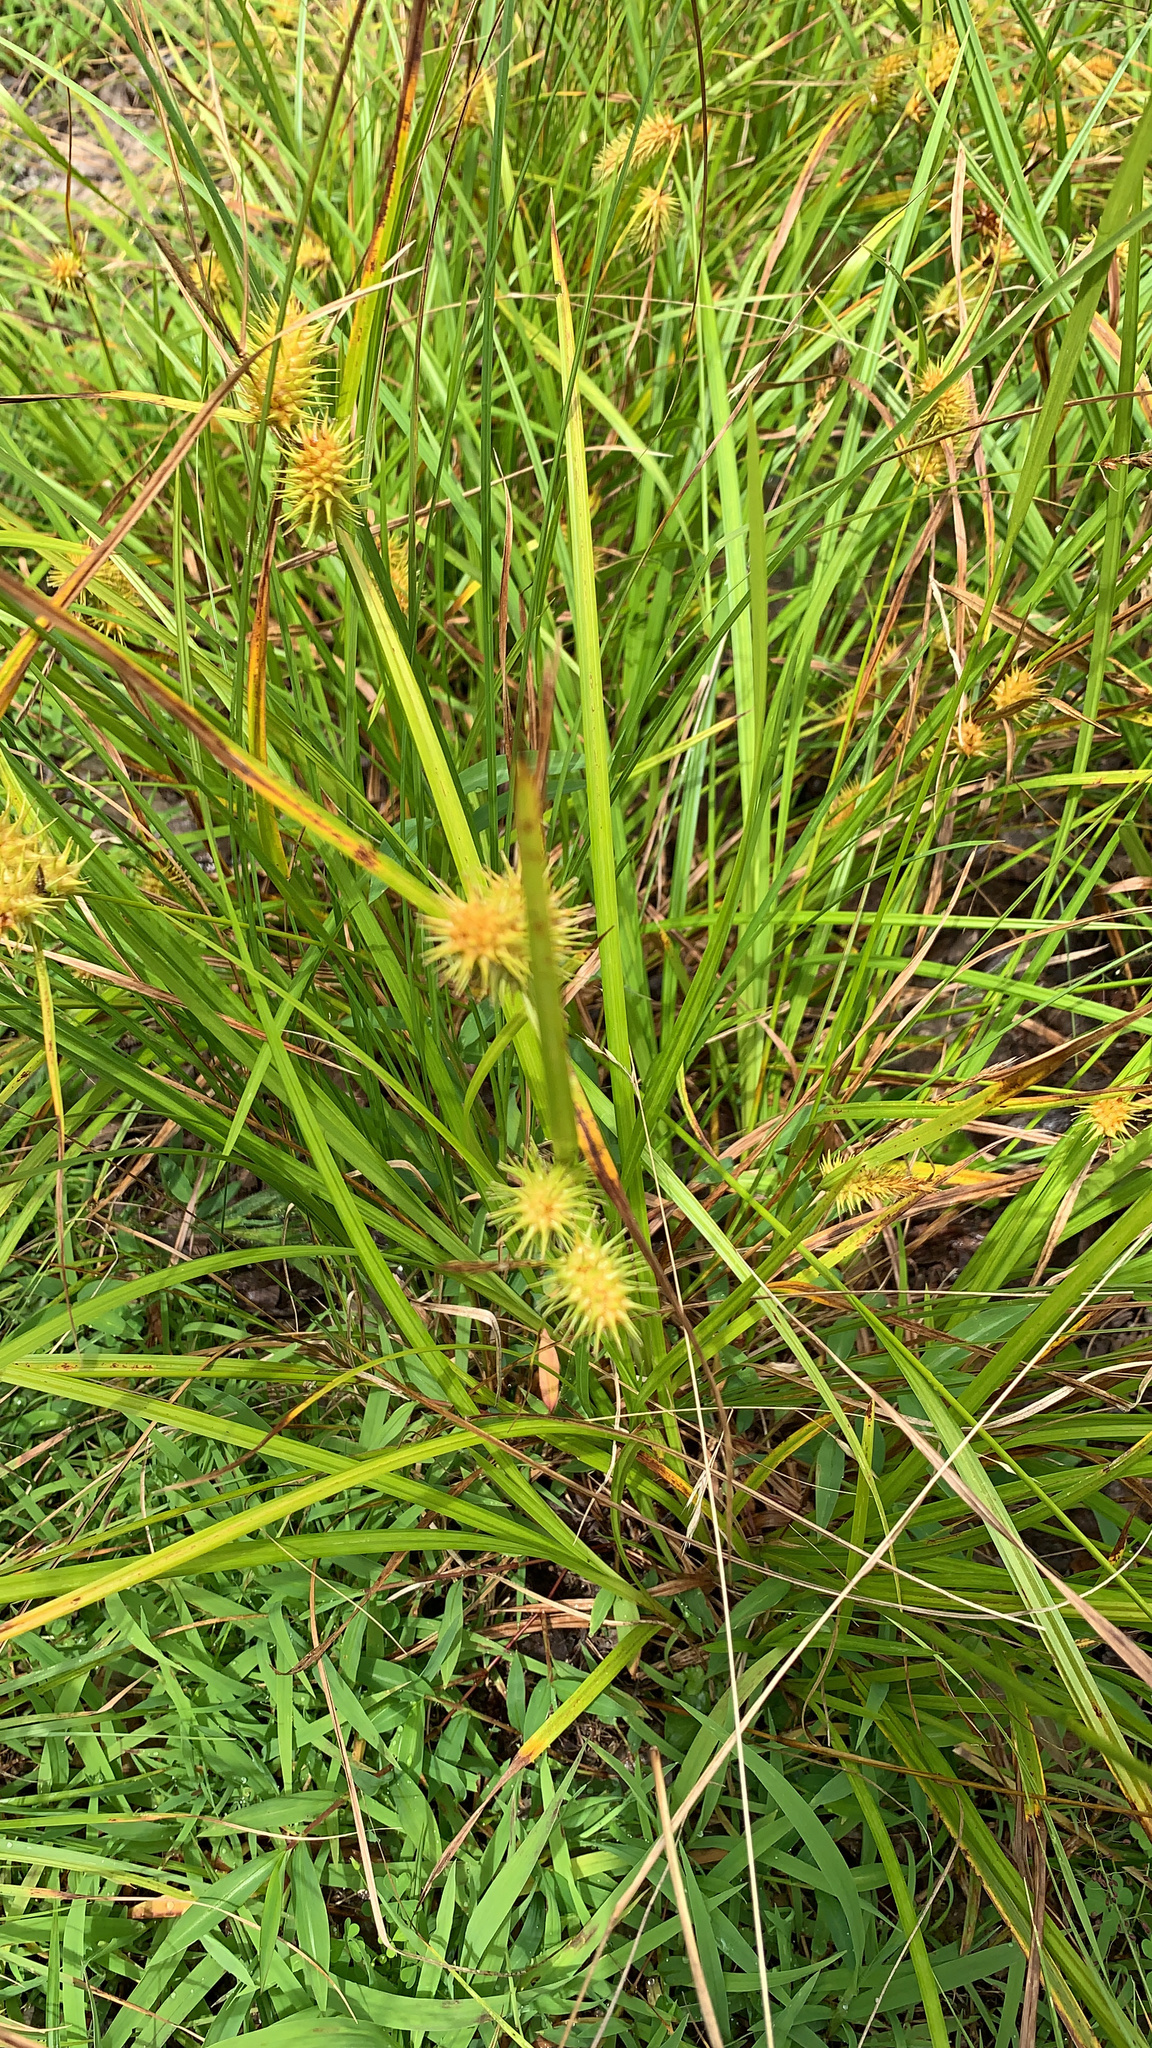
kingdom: Plantae
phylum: Tracheophyta
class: Liliopsida
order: Poales
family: Cyperaceae
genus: Carex
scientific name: Carex lurida
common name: Sallow sedge
